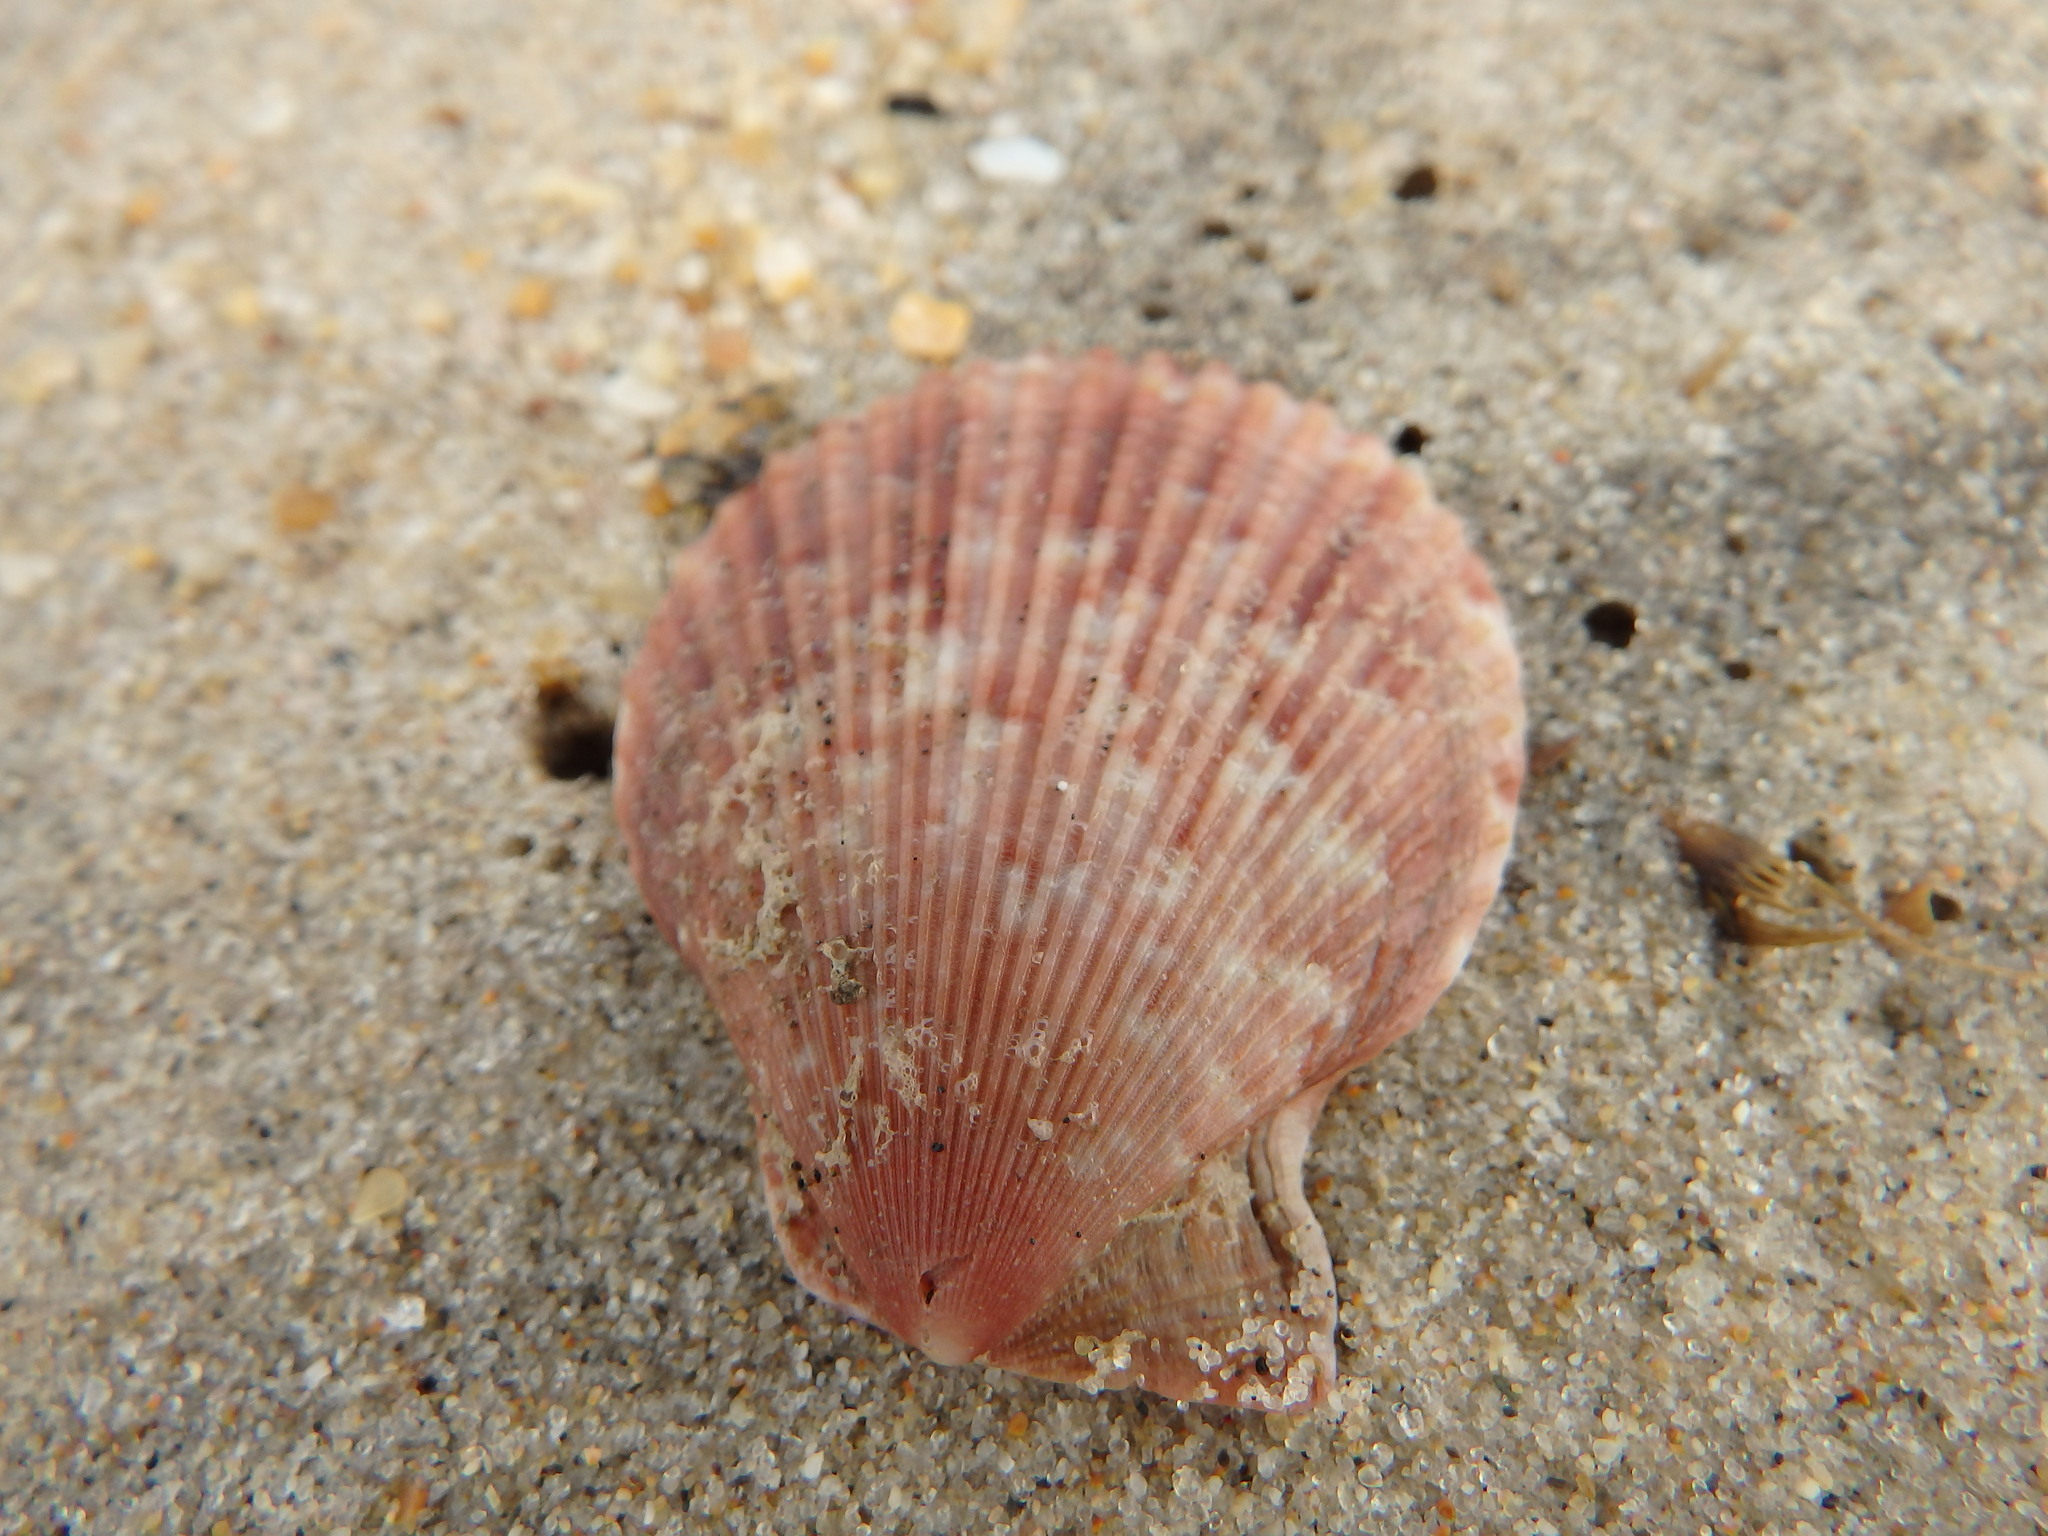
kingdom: Animalia
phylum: Mollusca
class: Bivalvia
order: Pectinida
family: Pectinidae
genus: Mimachlamys
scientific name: Mimachlamys varia
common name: Variegated scallop
